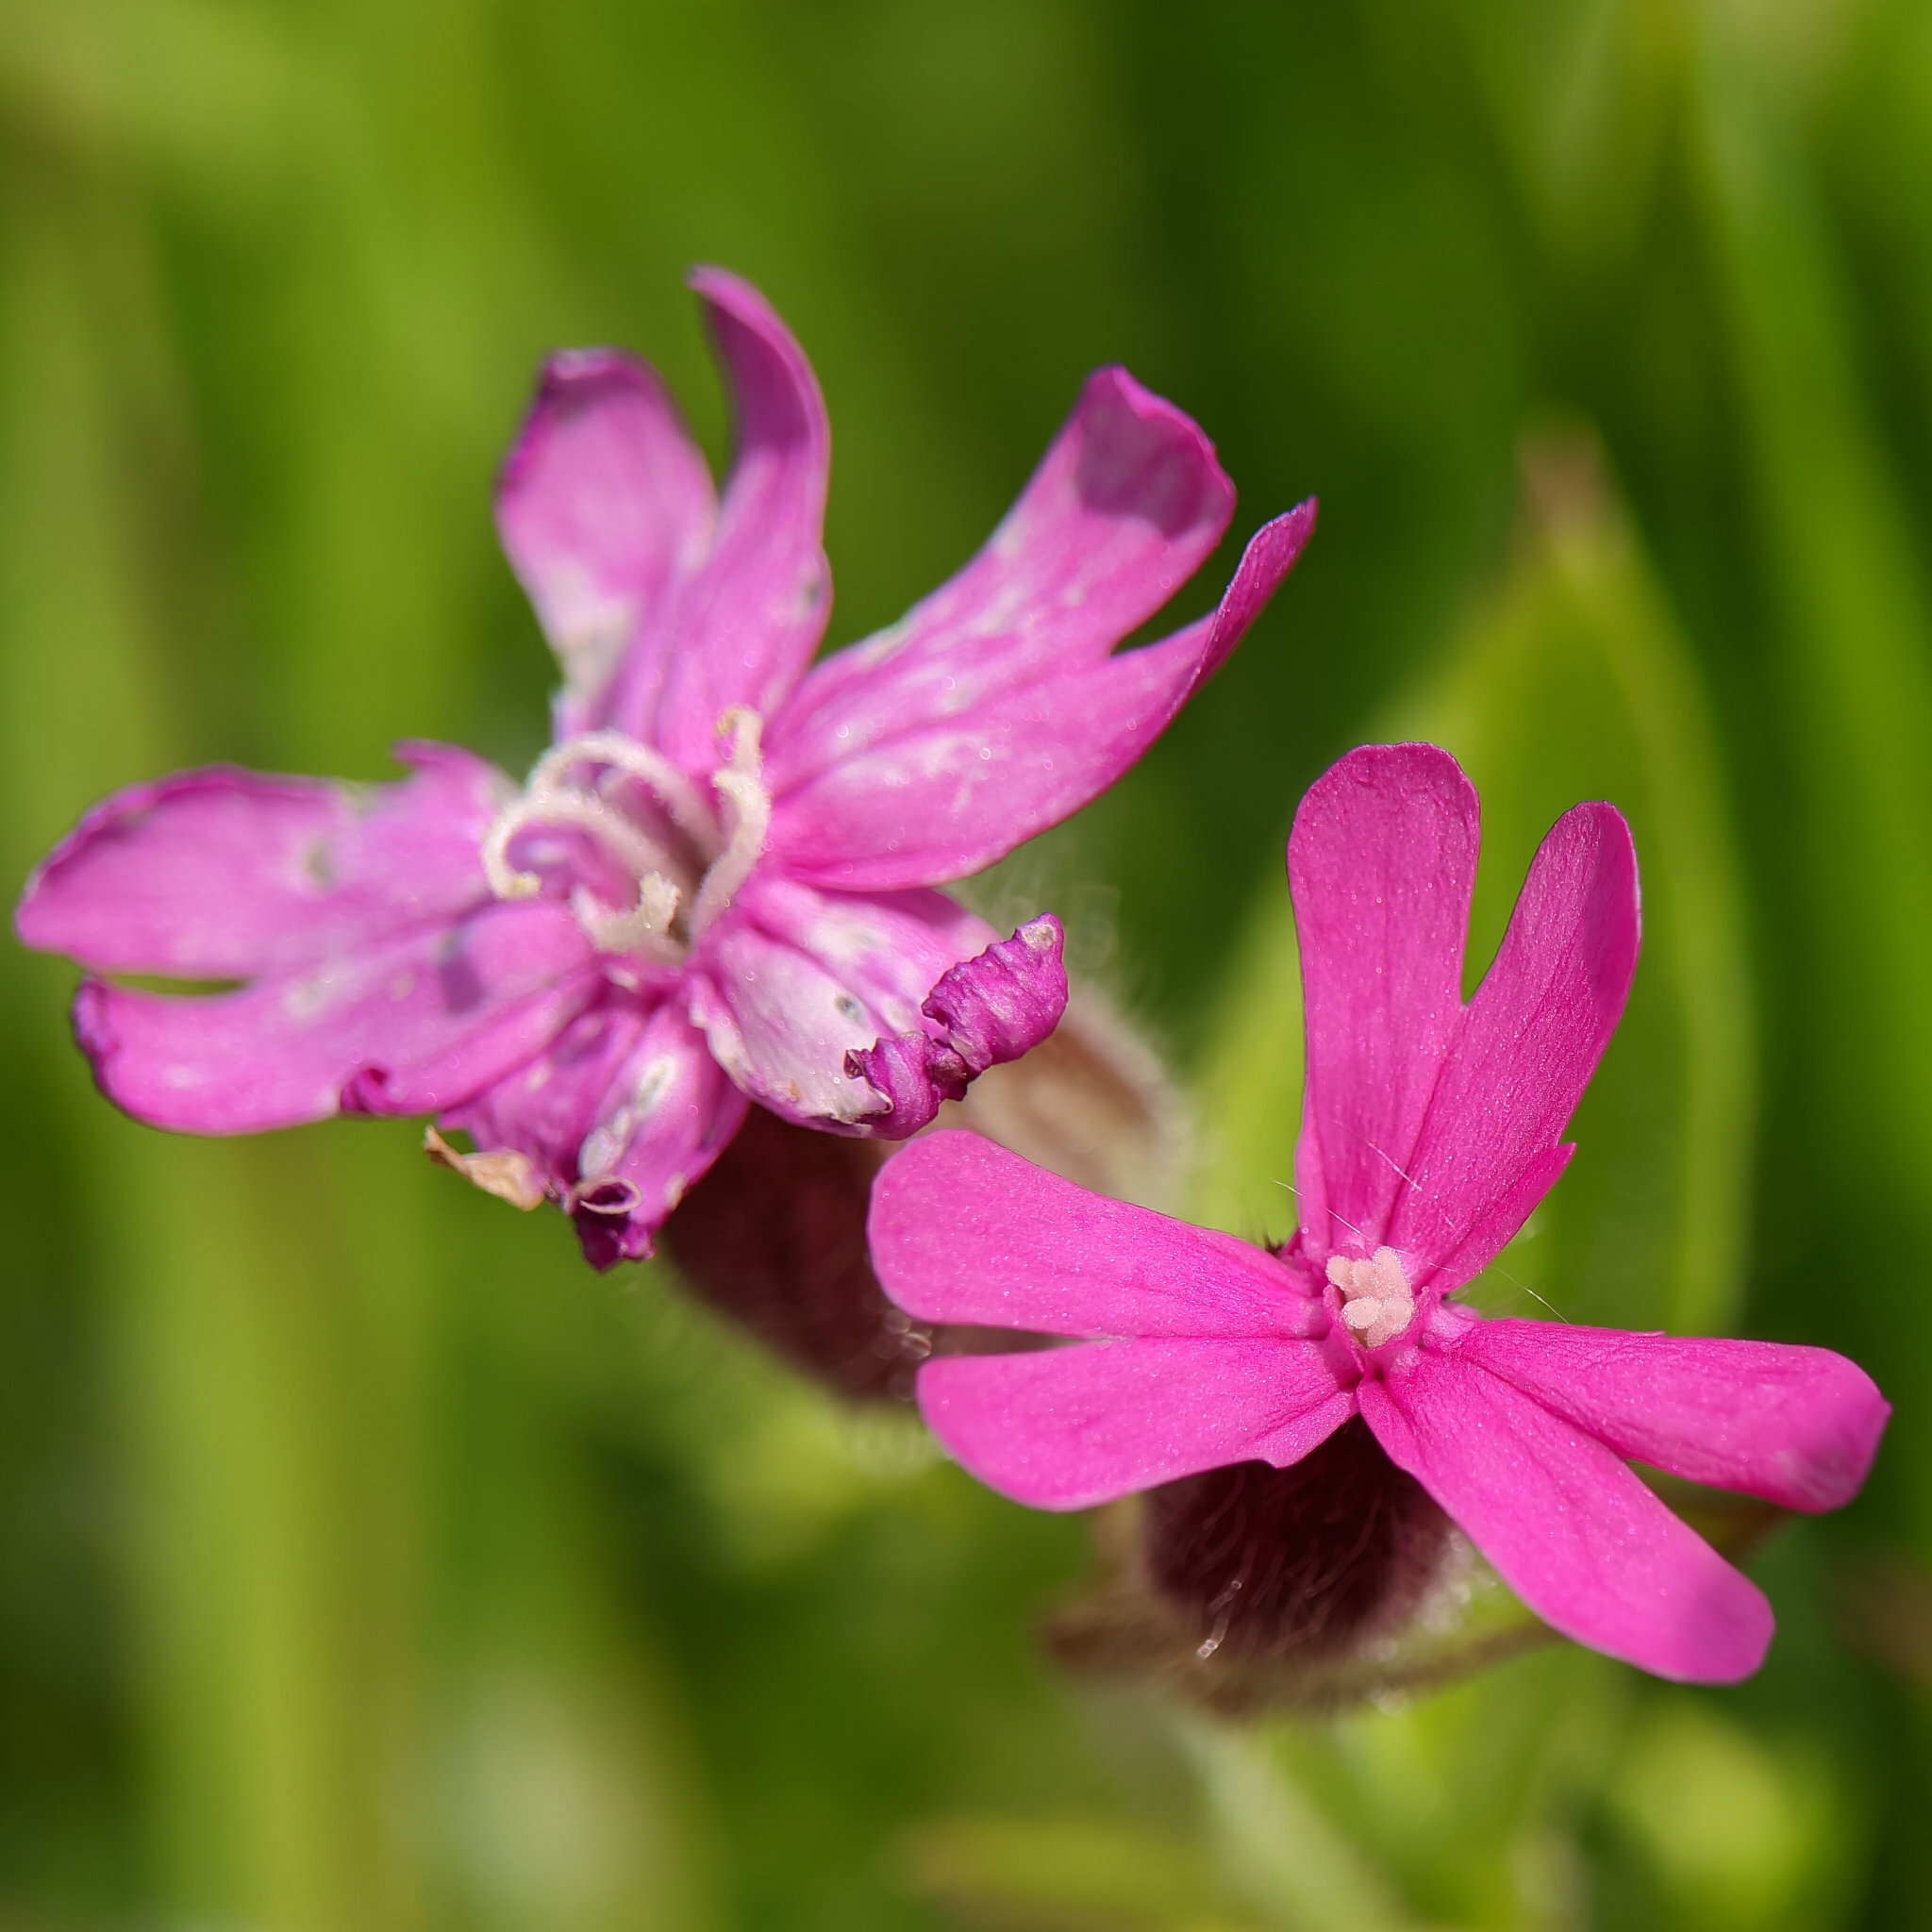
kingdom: Plantae
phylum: Tracheophyta
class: Magnoliopsida
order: Caryophyllales
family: Caryophyllaceae
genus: Silene
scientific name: Silene dioica
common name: Red campion
